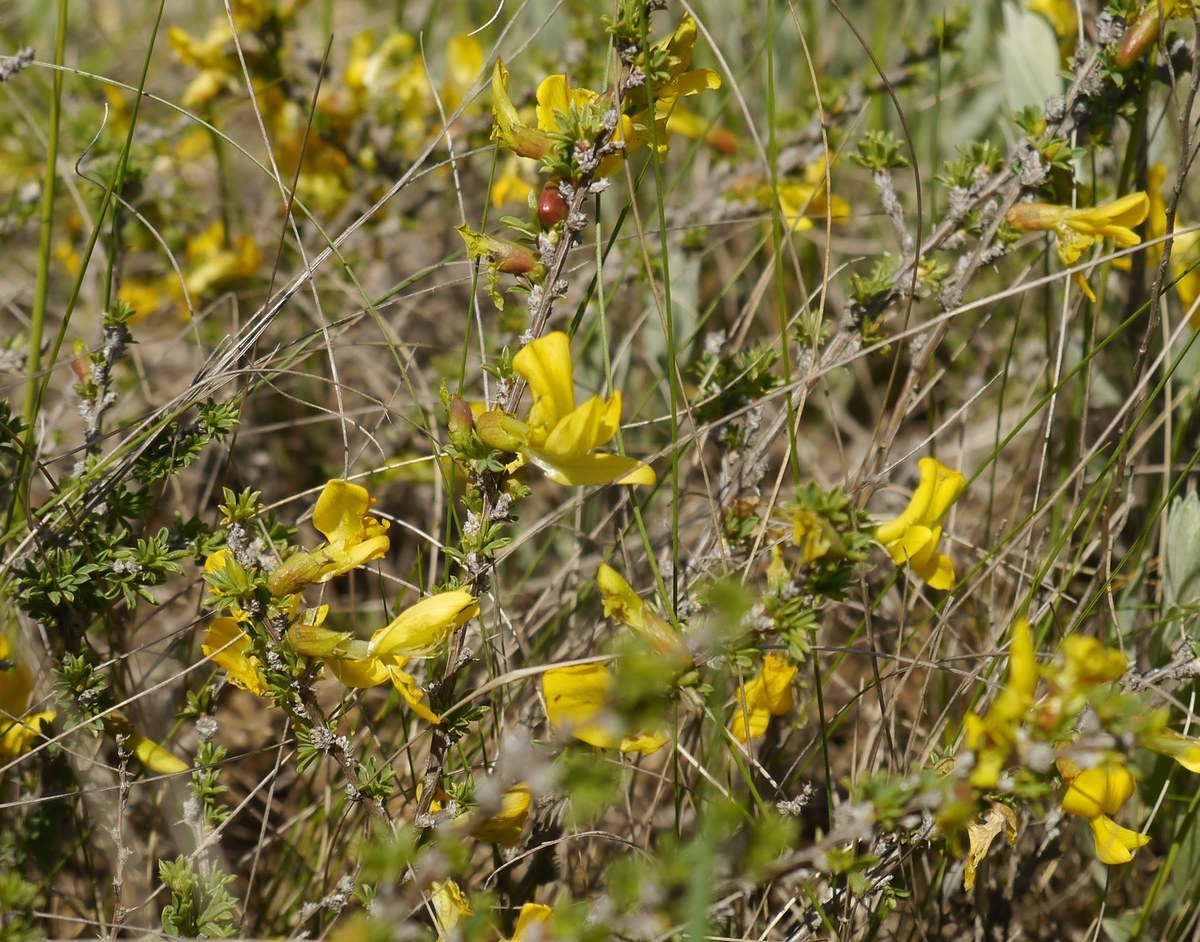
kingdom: Plantae
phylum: Tracheophyta
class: Magnoliopsida
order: Fabales
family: Fabaceae
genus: Caragana
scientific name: Caragana frutex
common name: Russian peashrub
